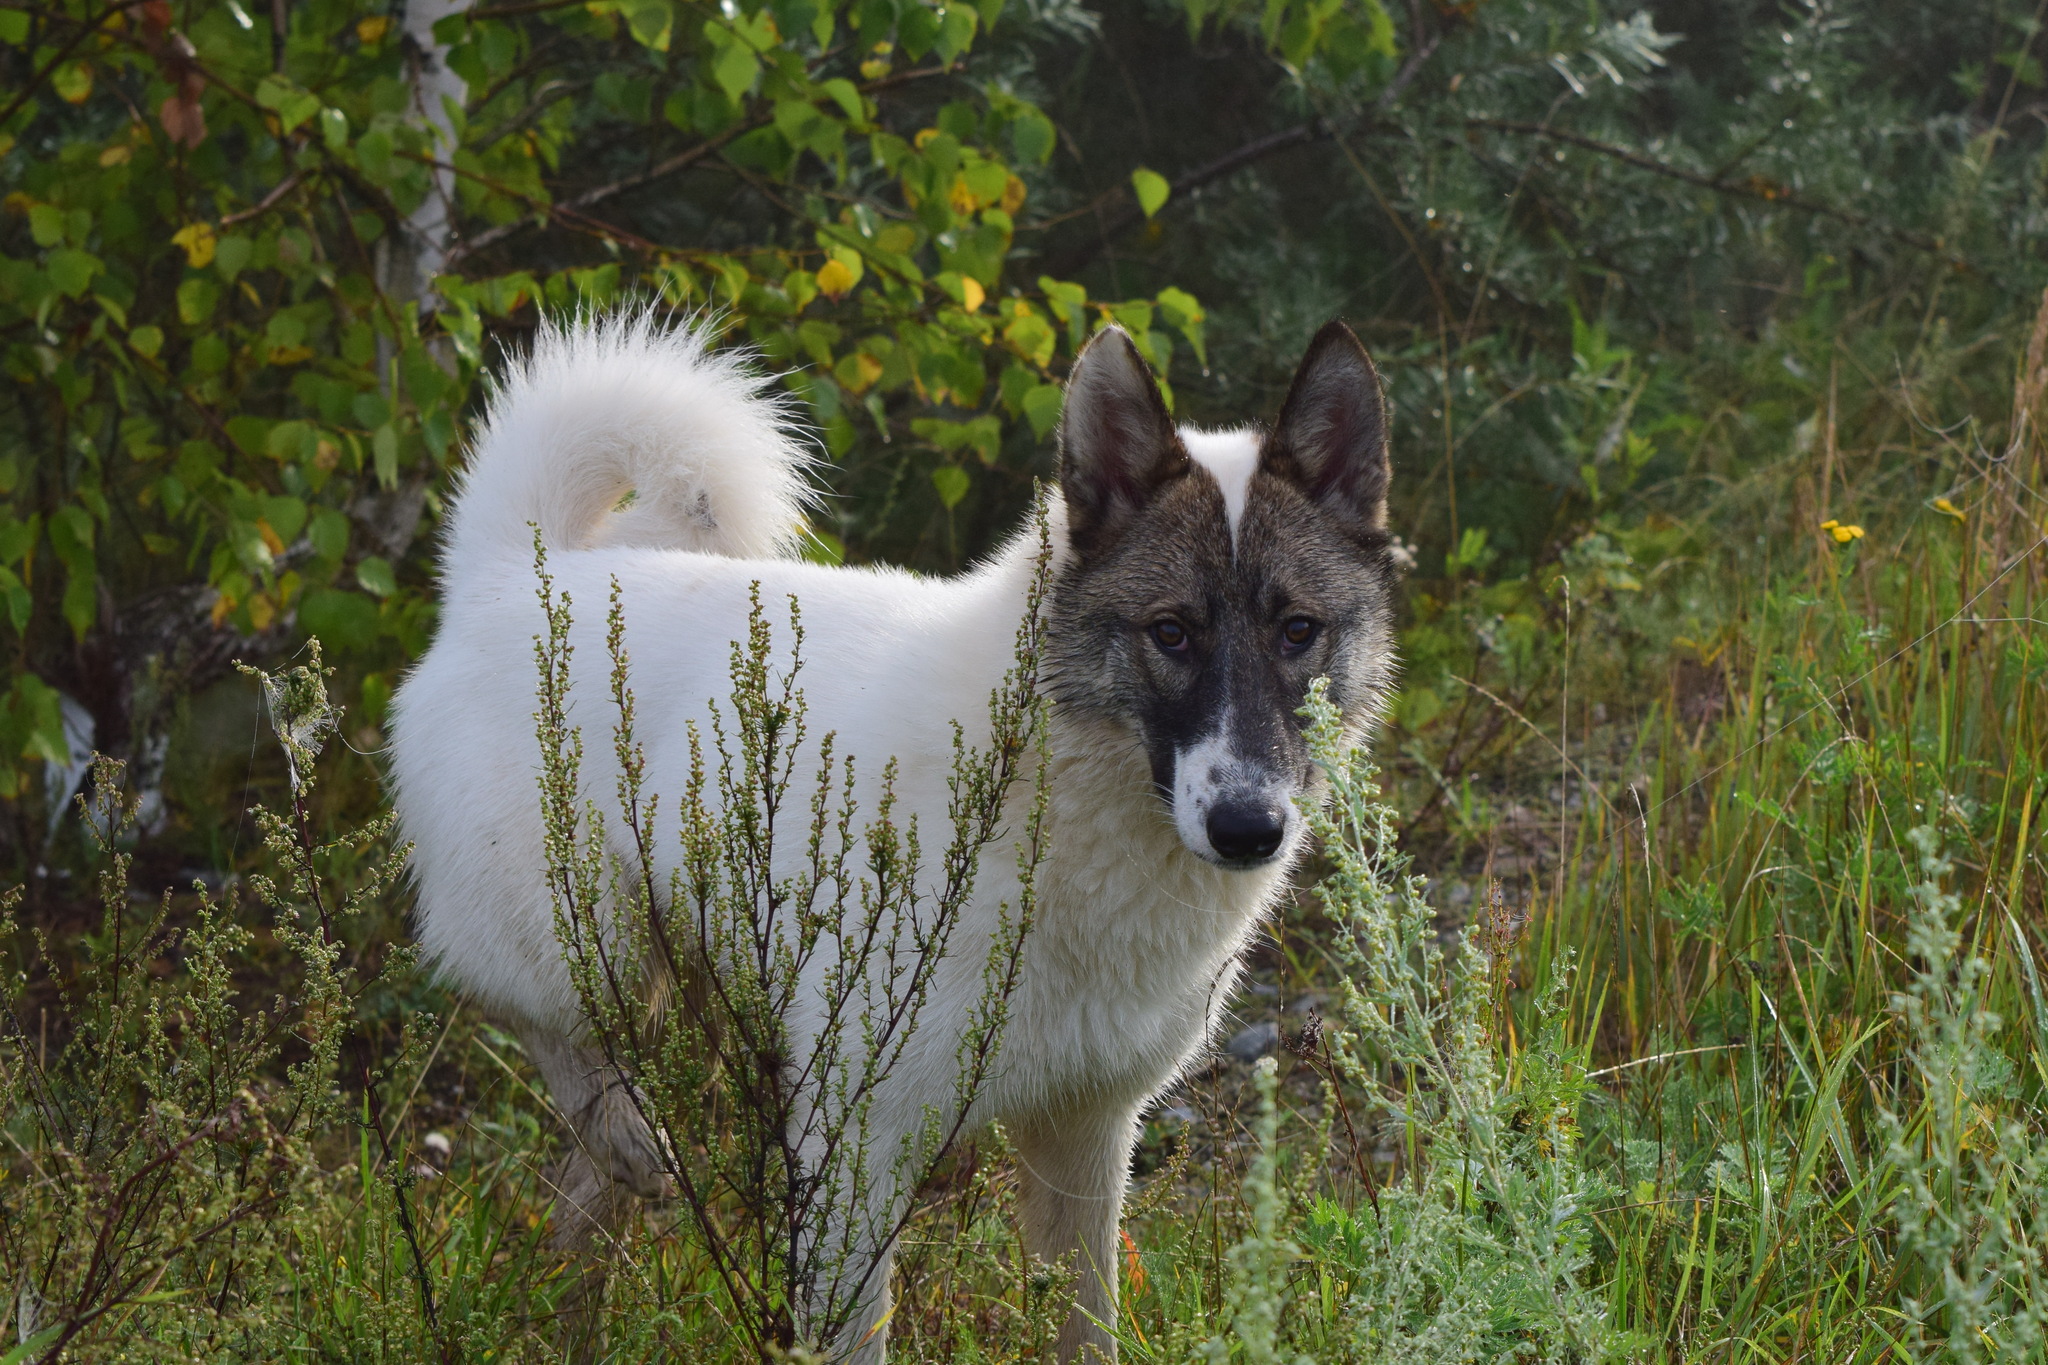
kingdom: Animalia
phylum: Chordata
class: Mammalia
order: Carnivora
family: Canidae
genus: Canis
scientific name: Canis lupus
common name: Gray wolf
